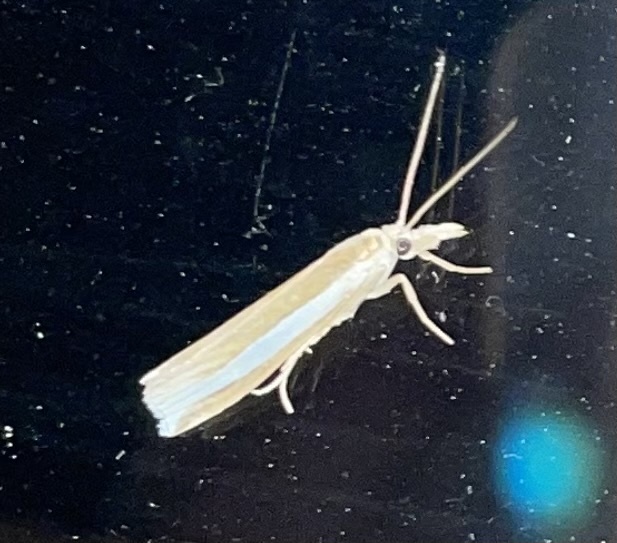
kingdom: Animalia
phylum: Arthropoda
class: Insecta
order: Lepidoptera
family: Crambidae
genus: Crambus
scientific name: Crambus unistriatellus
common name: Wide-stripe grass-veneer moth
